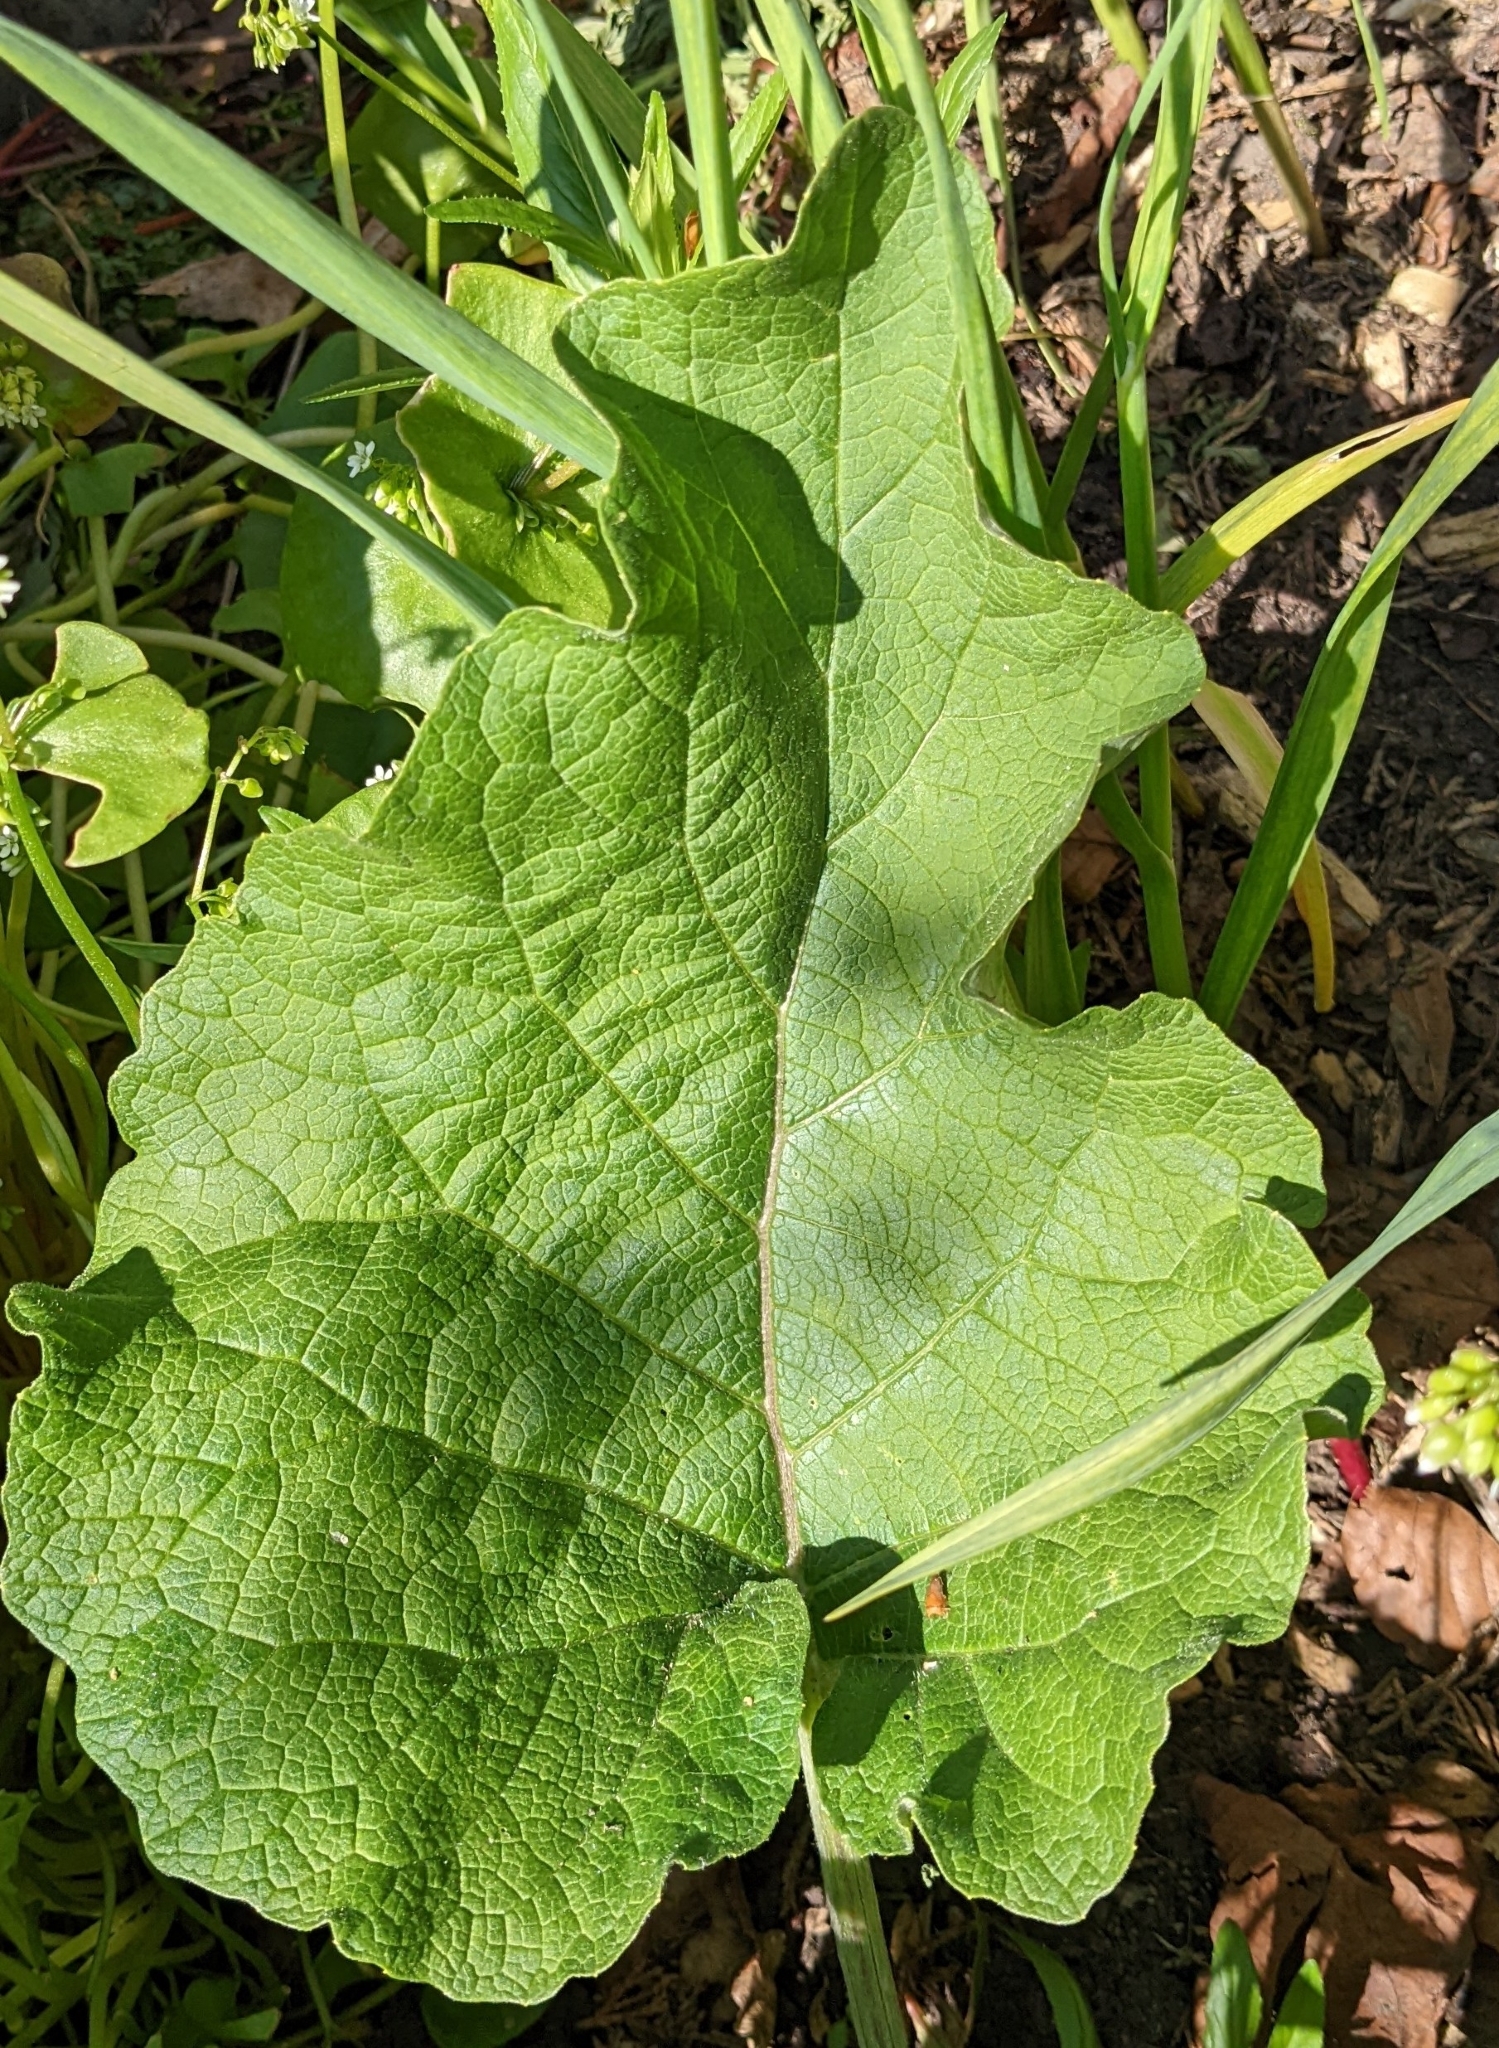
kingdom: Plantae
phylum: Tracheophyta
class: Magnoliopsida
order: Asterales
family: Asteraceae
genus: Arctium
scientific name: Arctium minus
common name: Lesser burdock
